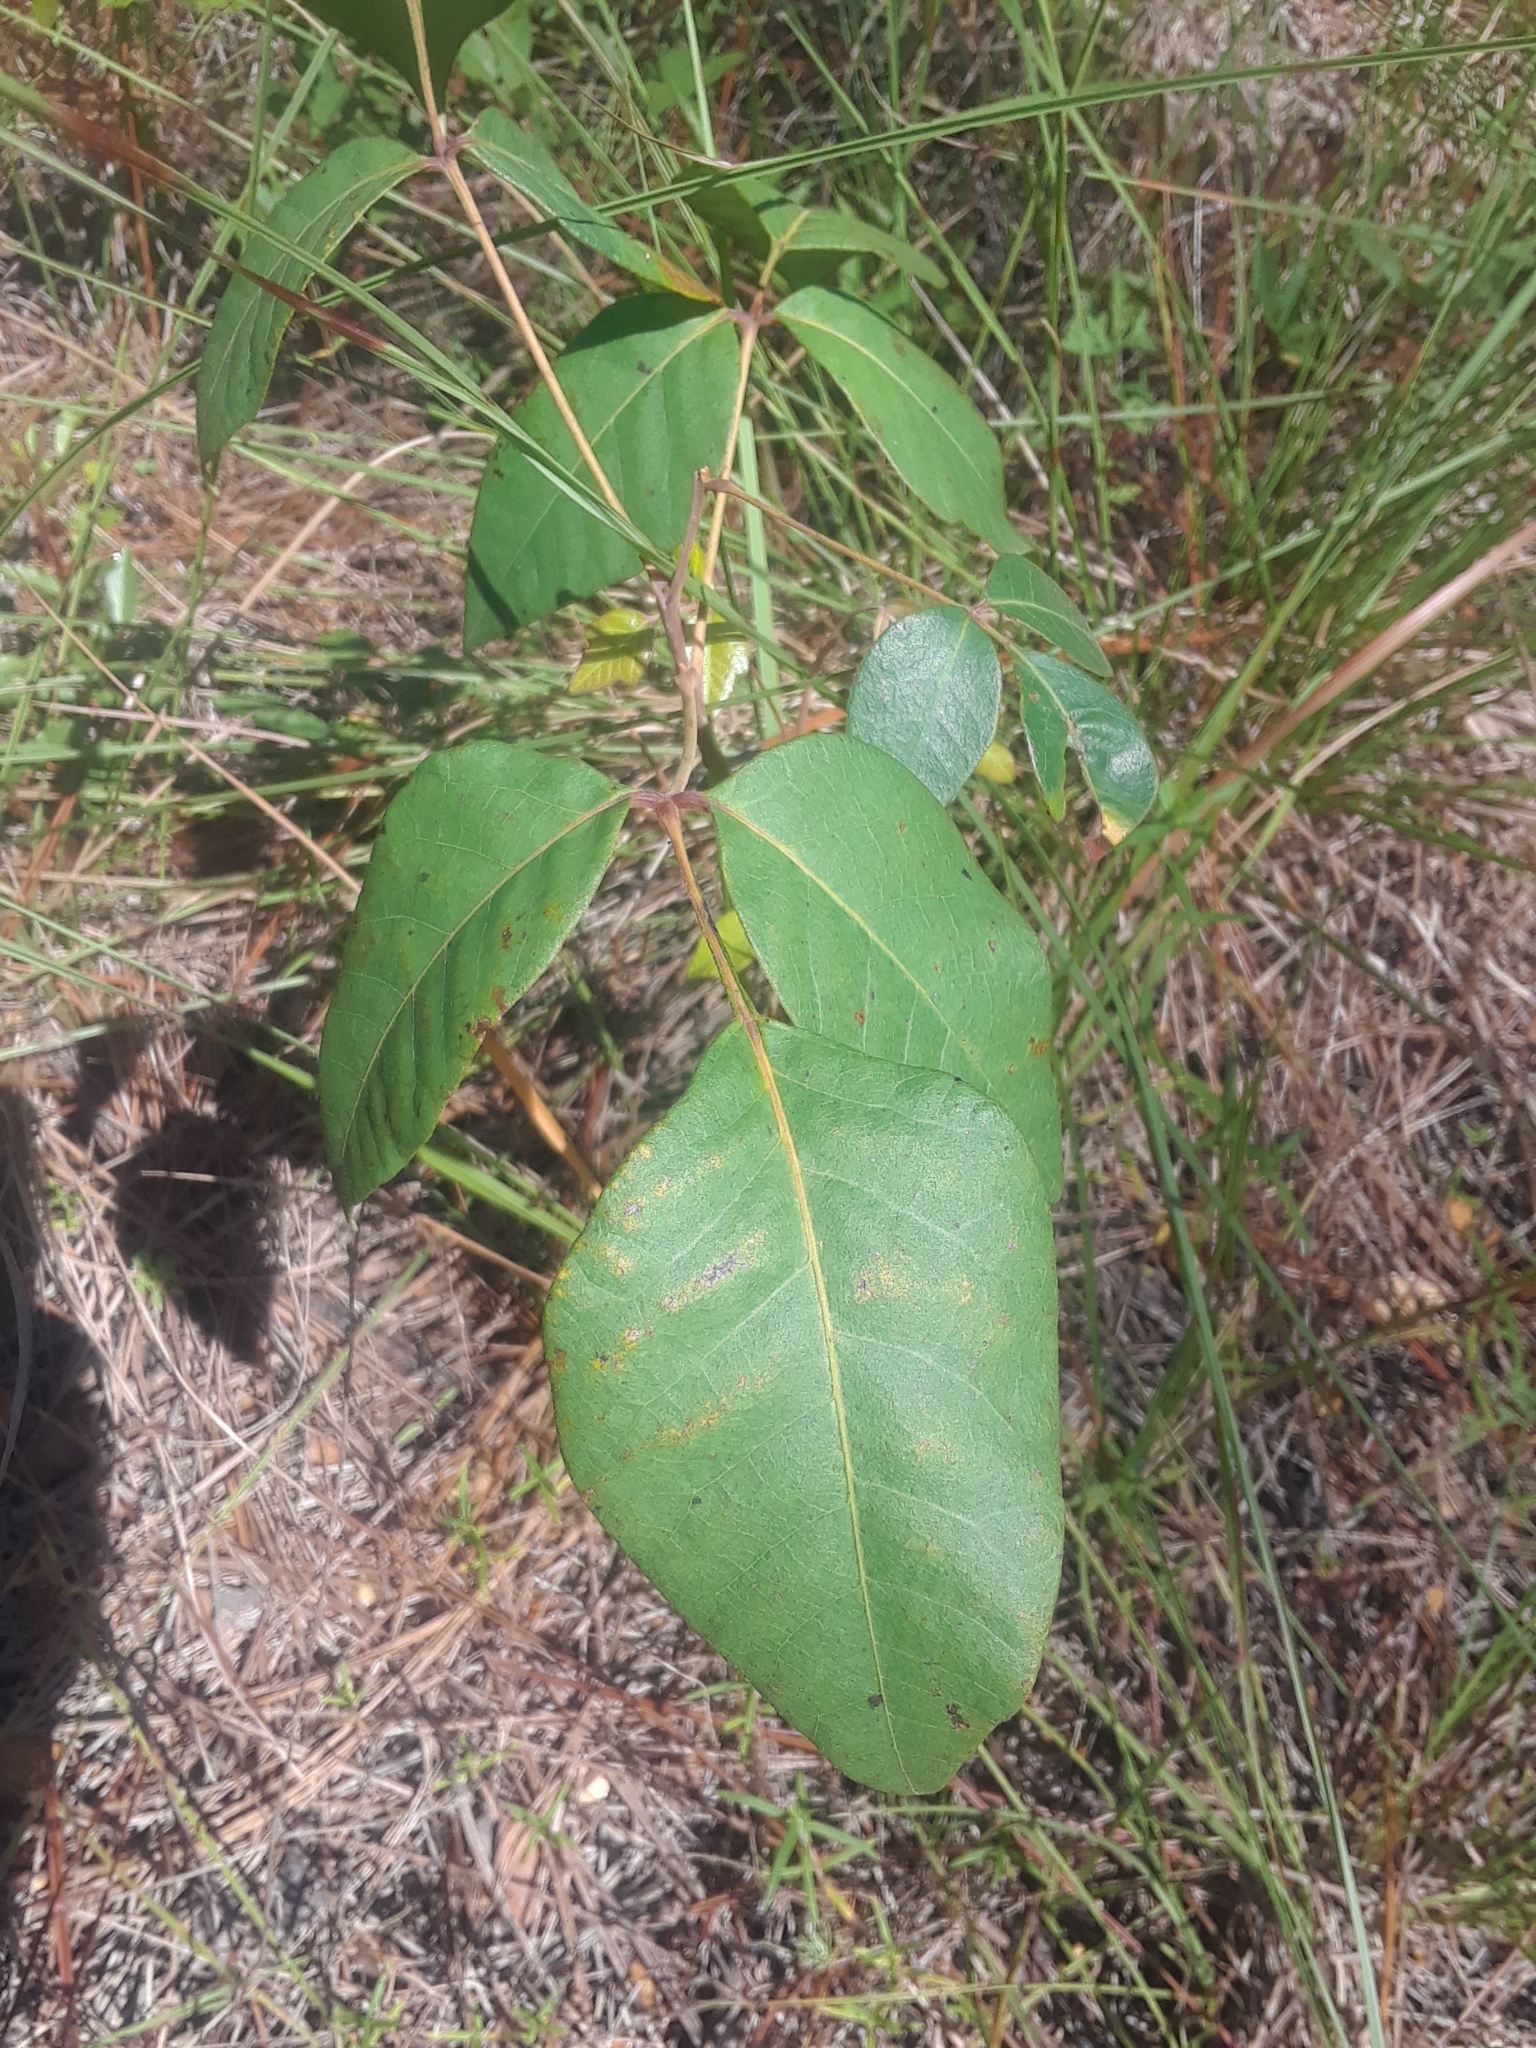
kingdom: Plantae
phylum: Tracheophyta
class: Magnoliopsida
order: Sapindales
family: Anacardiaceae
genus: Toxicodendron
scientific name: Toxicodendron radicans
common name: Poison ivy
